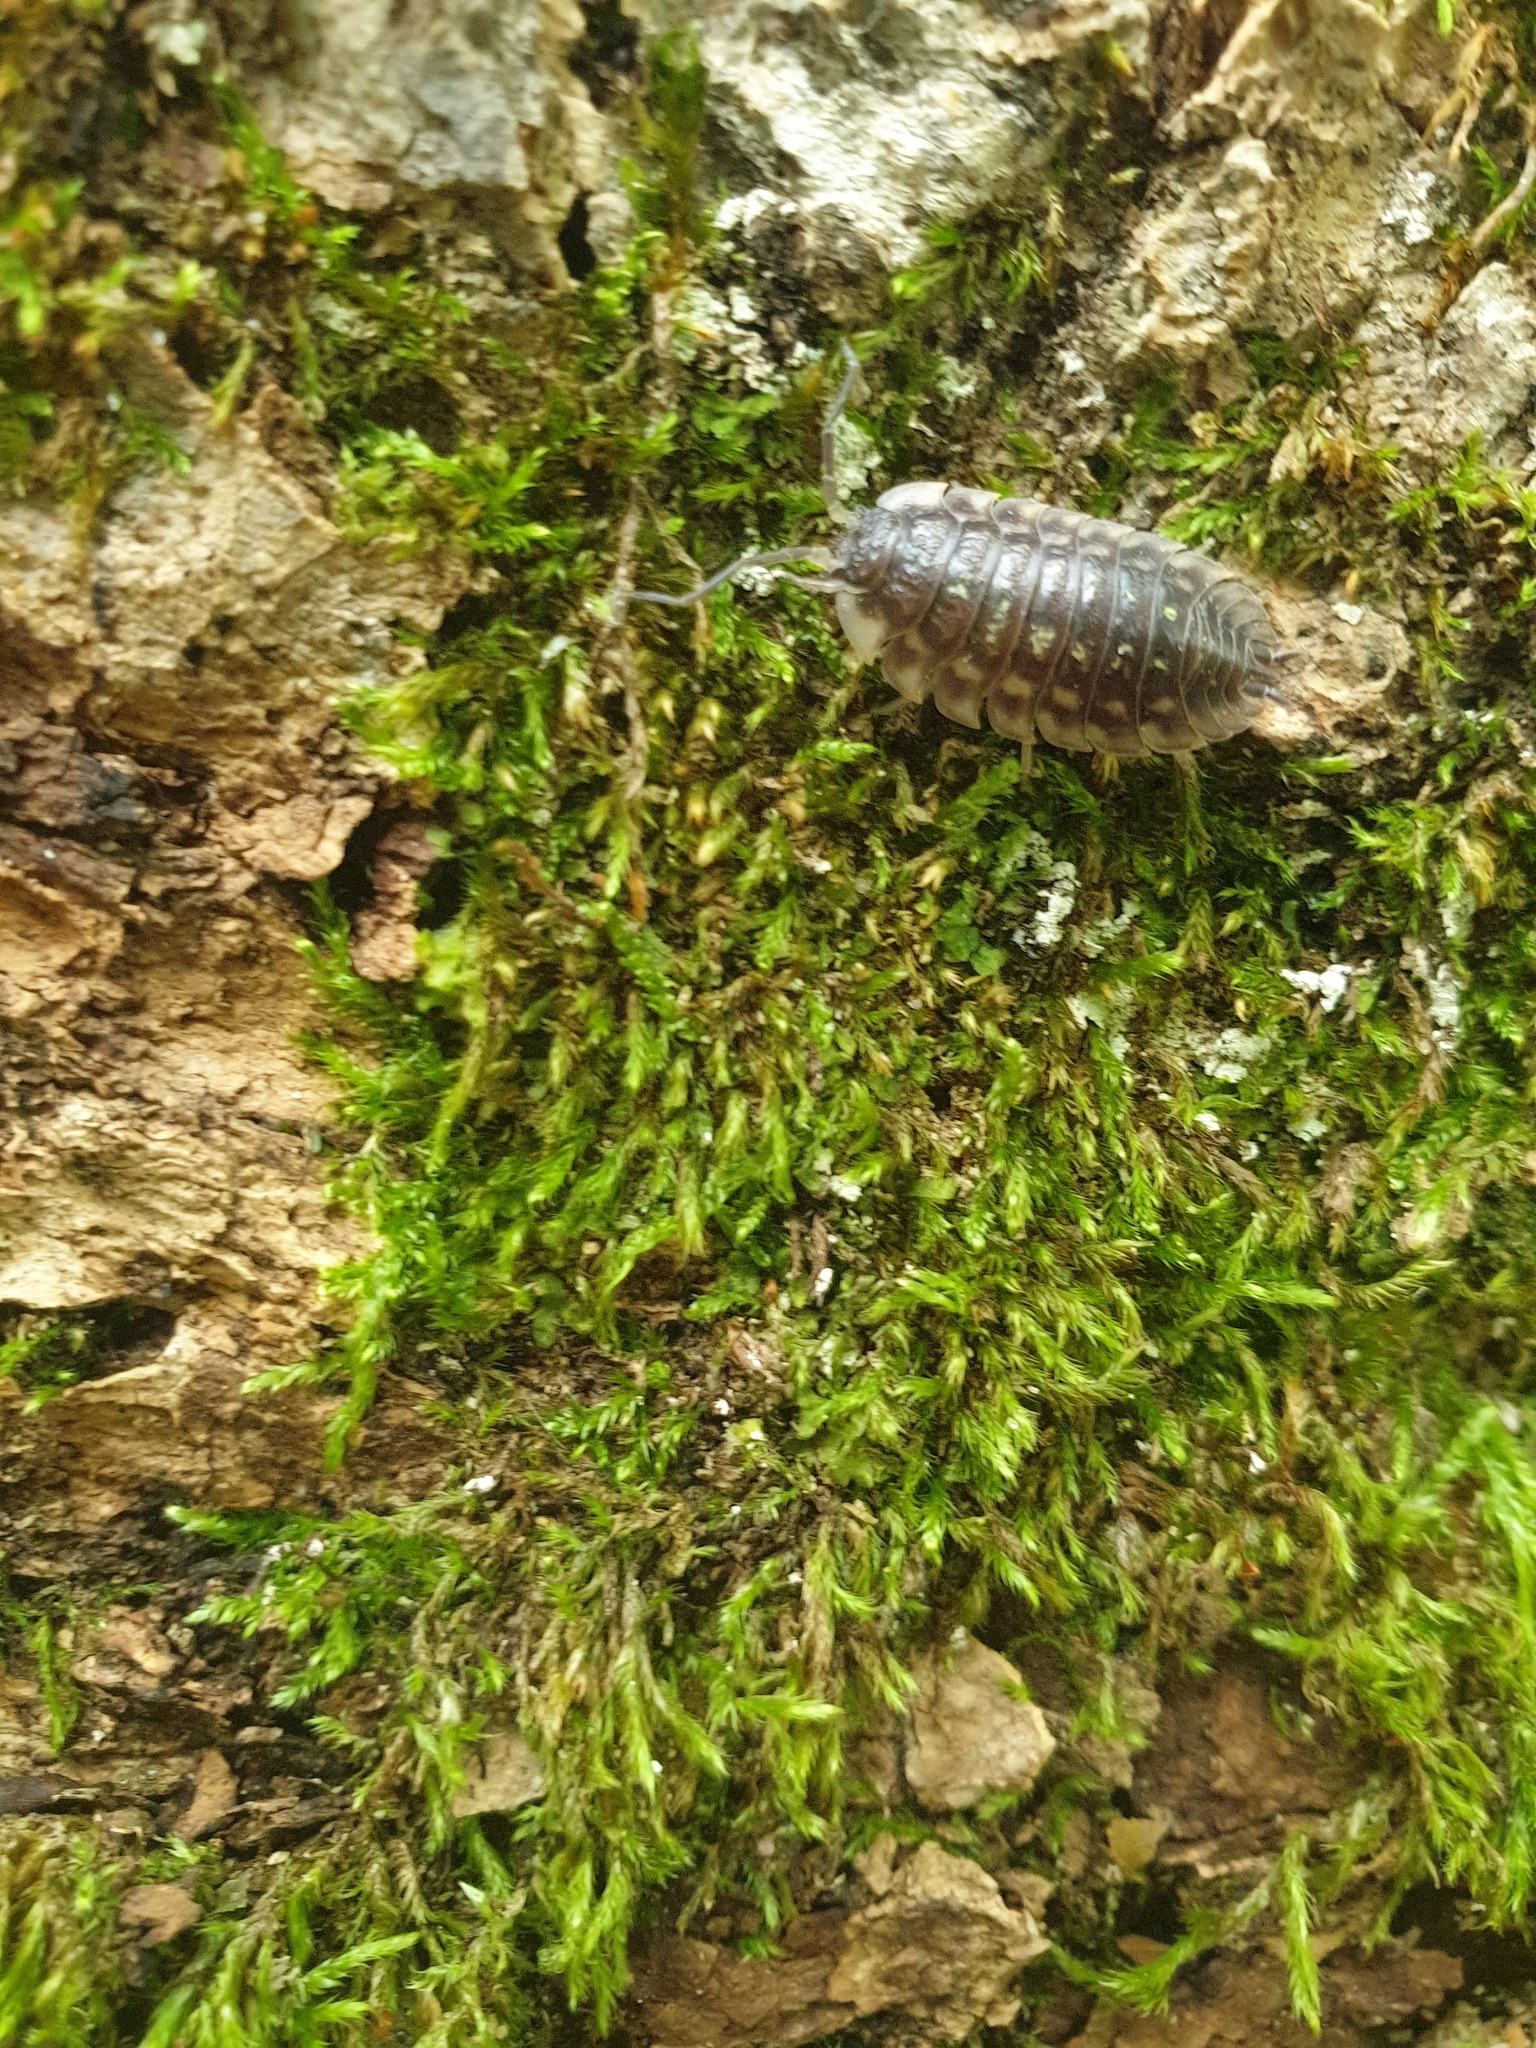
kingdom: Animalia
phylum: Arthropoda
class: Malacostraca
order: Isopoda
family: Oniscidae
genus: Oniscus
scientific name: Oniscus asellus
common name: Common shiny woodlouse
